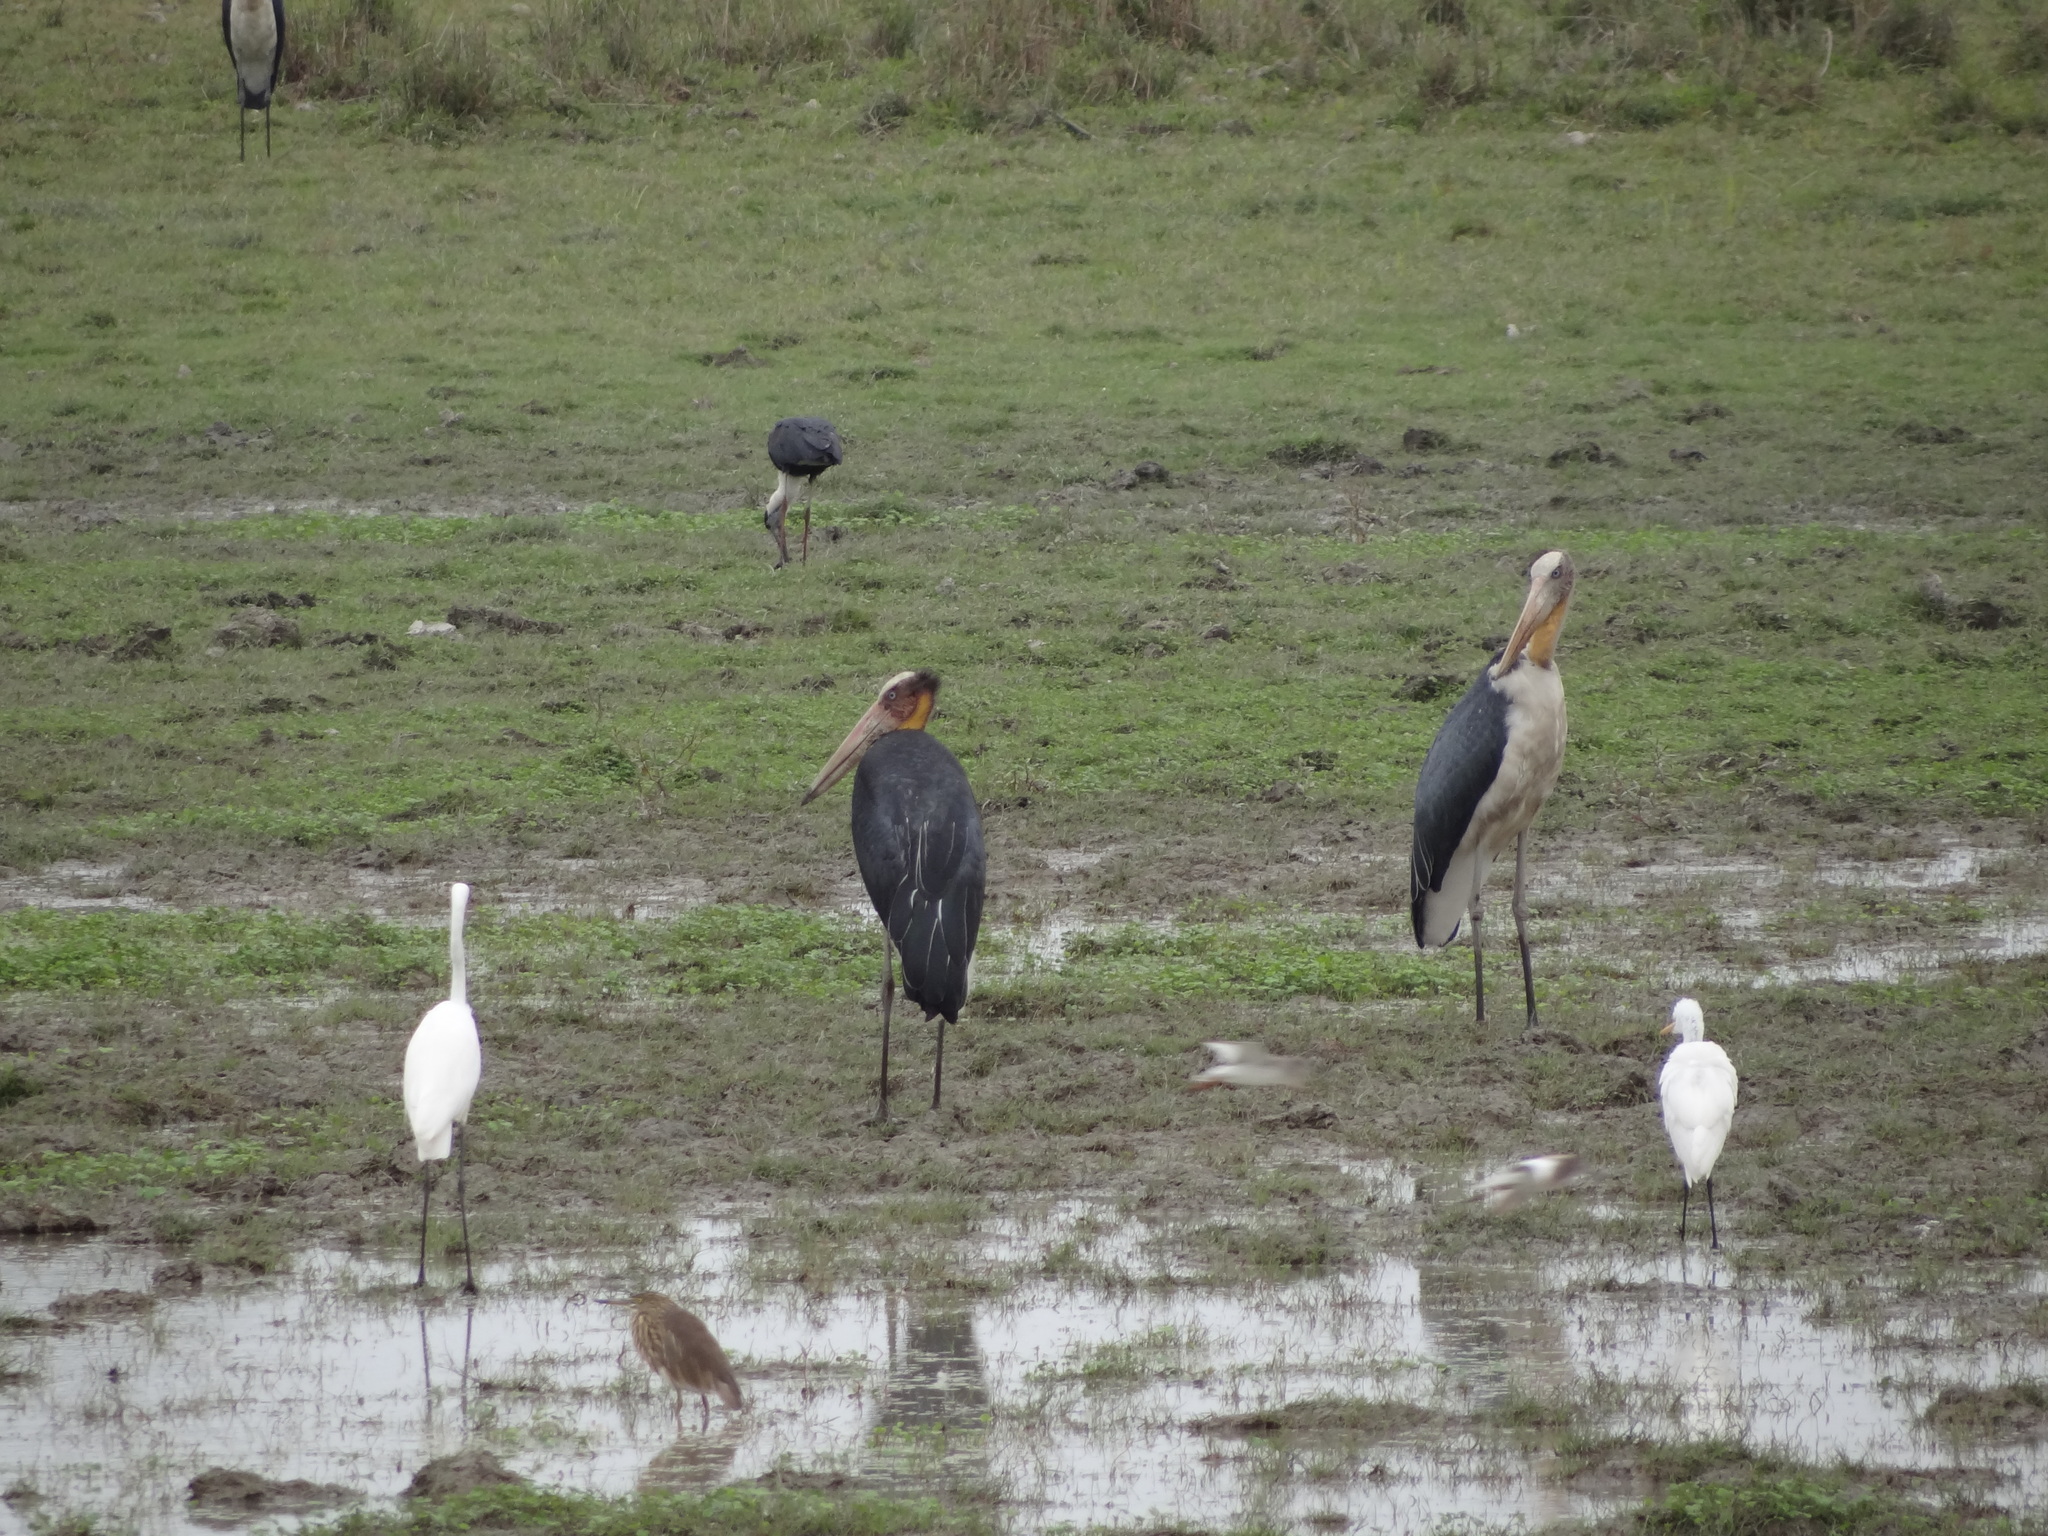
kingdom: Animalia
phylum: Chordata
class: Aves
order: Ciconiiformes
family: Ciconiidae
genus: Leptoptilos
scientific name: Leptoptilos javanicus
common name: Lesser adjutant
